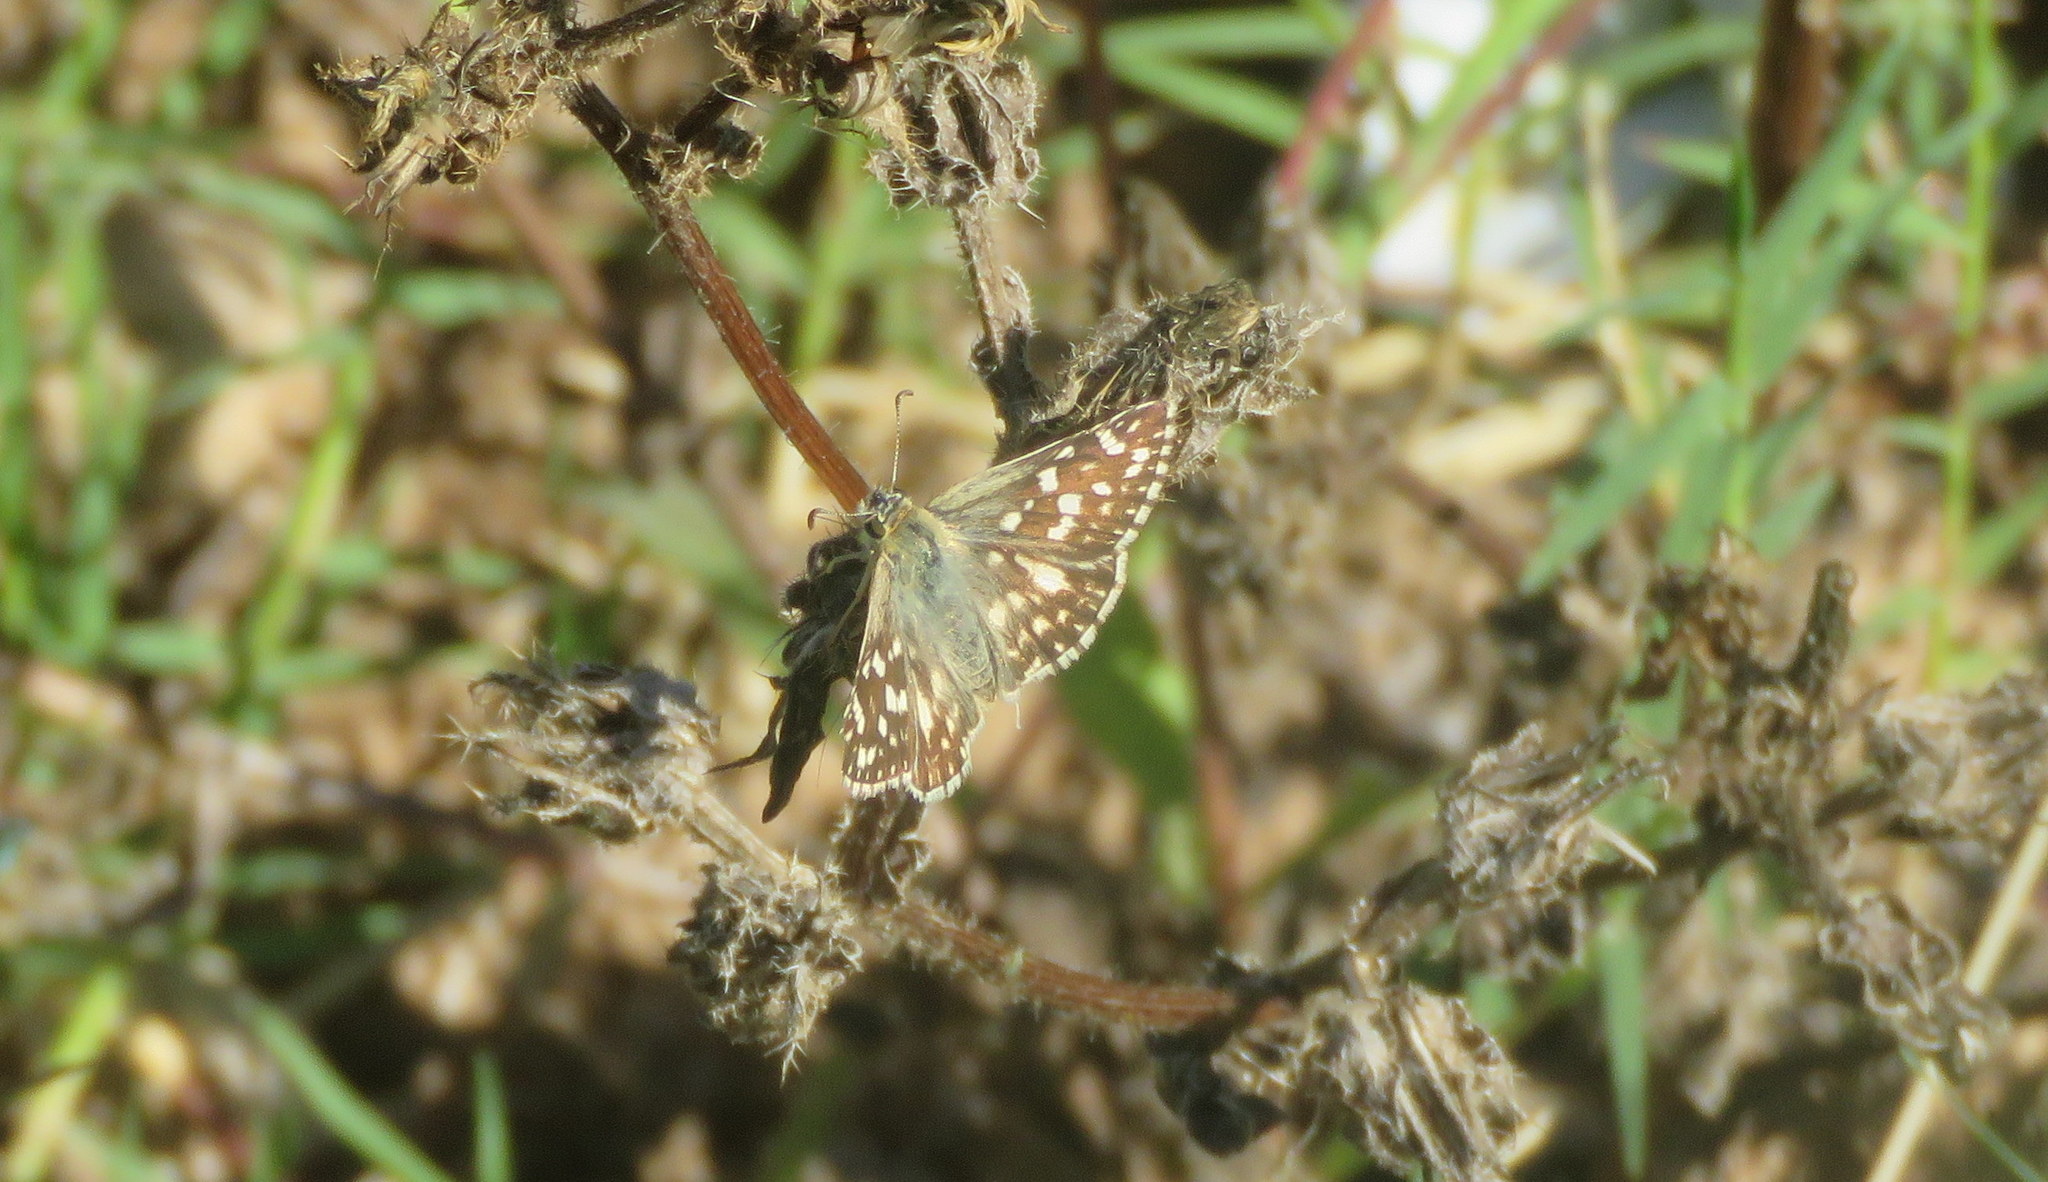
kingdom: Animalia
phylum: Arthropoda
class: Insecta
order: Lepidoptera
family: Hesperiidae
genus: Heliopetes
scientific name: Heliopetes americanus
